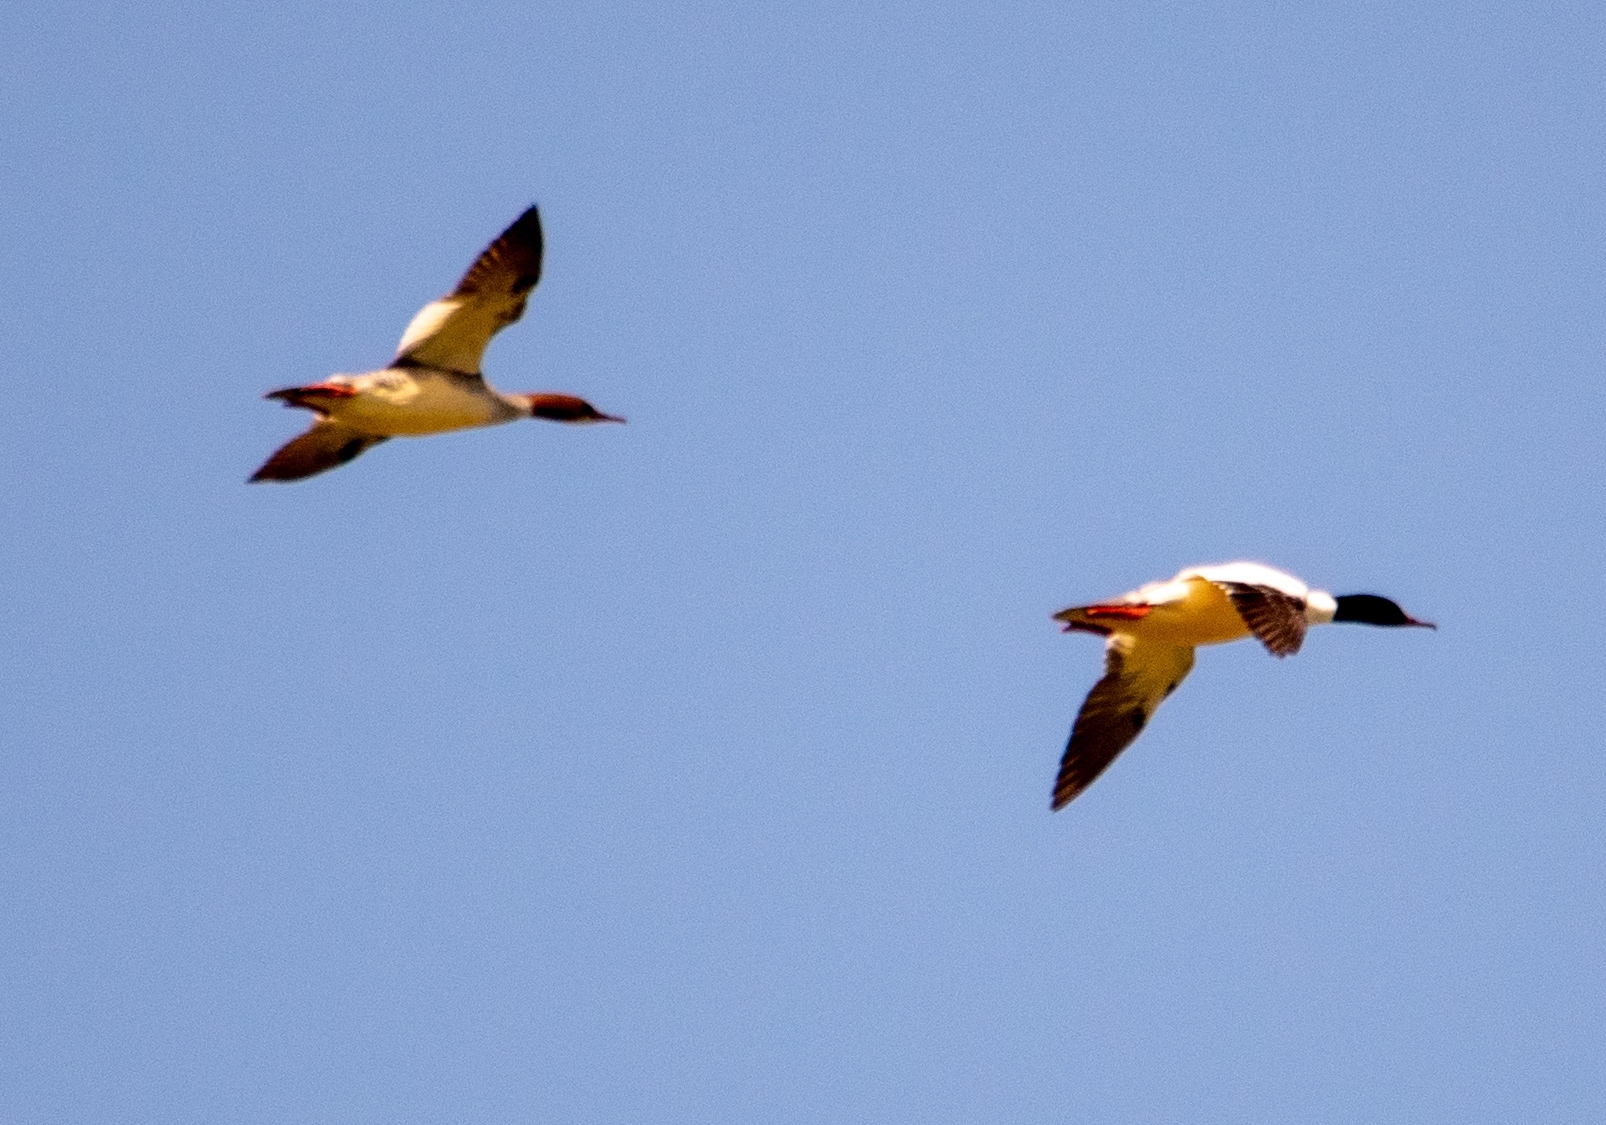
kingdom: Animalia
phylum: Chordata
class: Aves
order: Anseriformes
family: Anatidae
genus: Mergus
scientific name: Mergus merganser
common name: Common merganser
